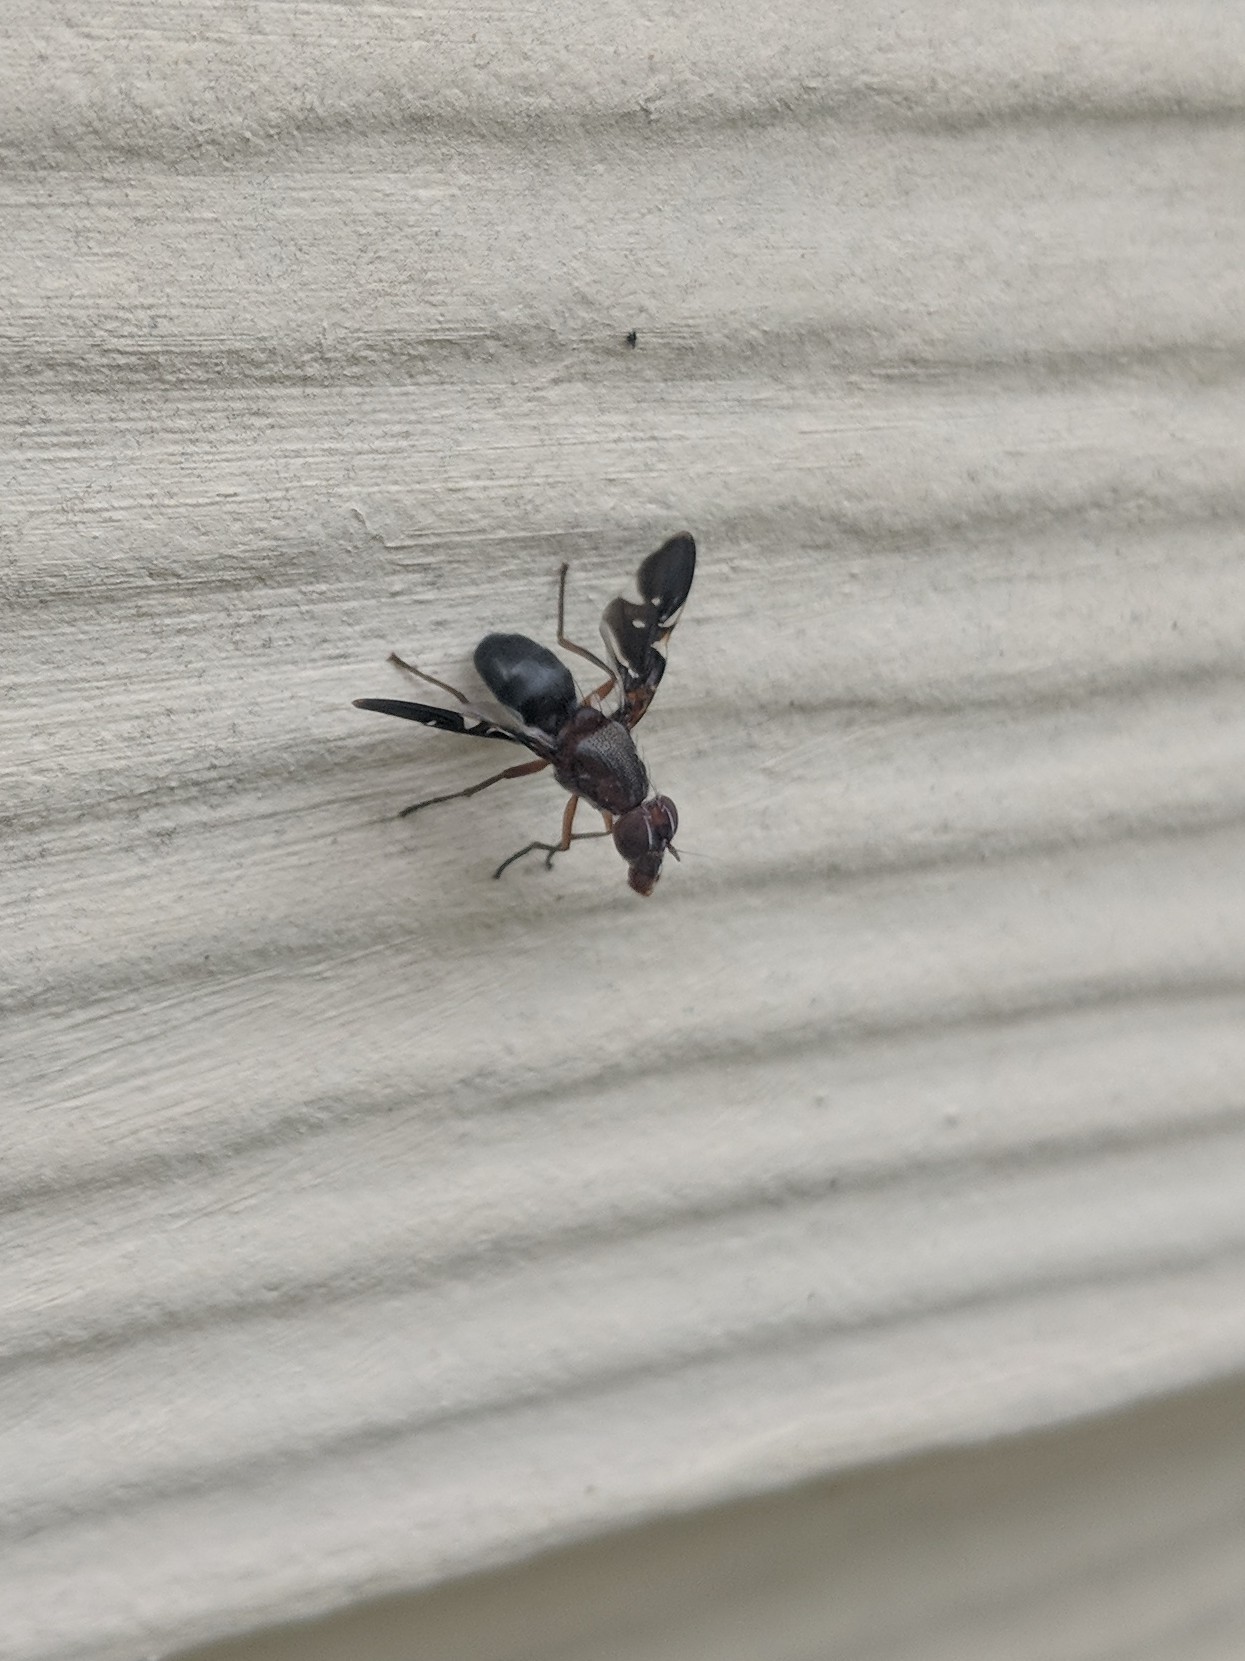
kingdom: Animalia
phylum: Arthropoda
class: Insecta
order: Diptera
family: Ulidiidae
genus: Delphinia
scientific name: Delphinia picta
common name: Common picture-winged fly
